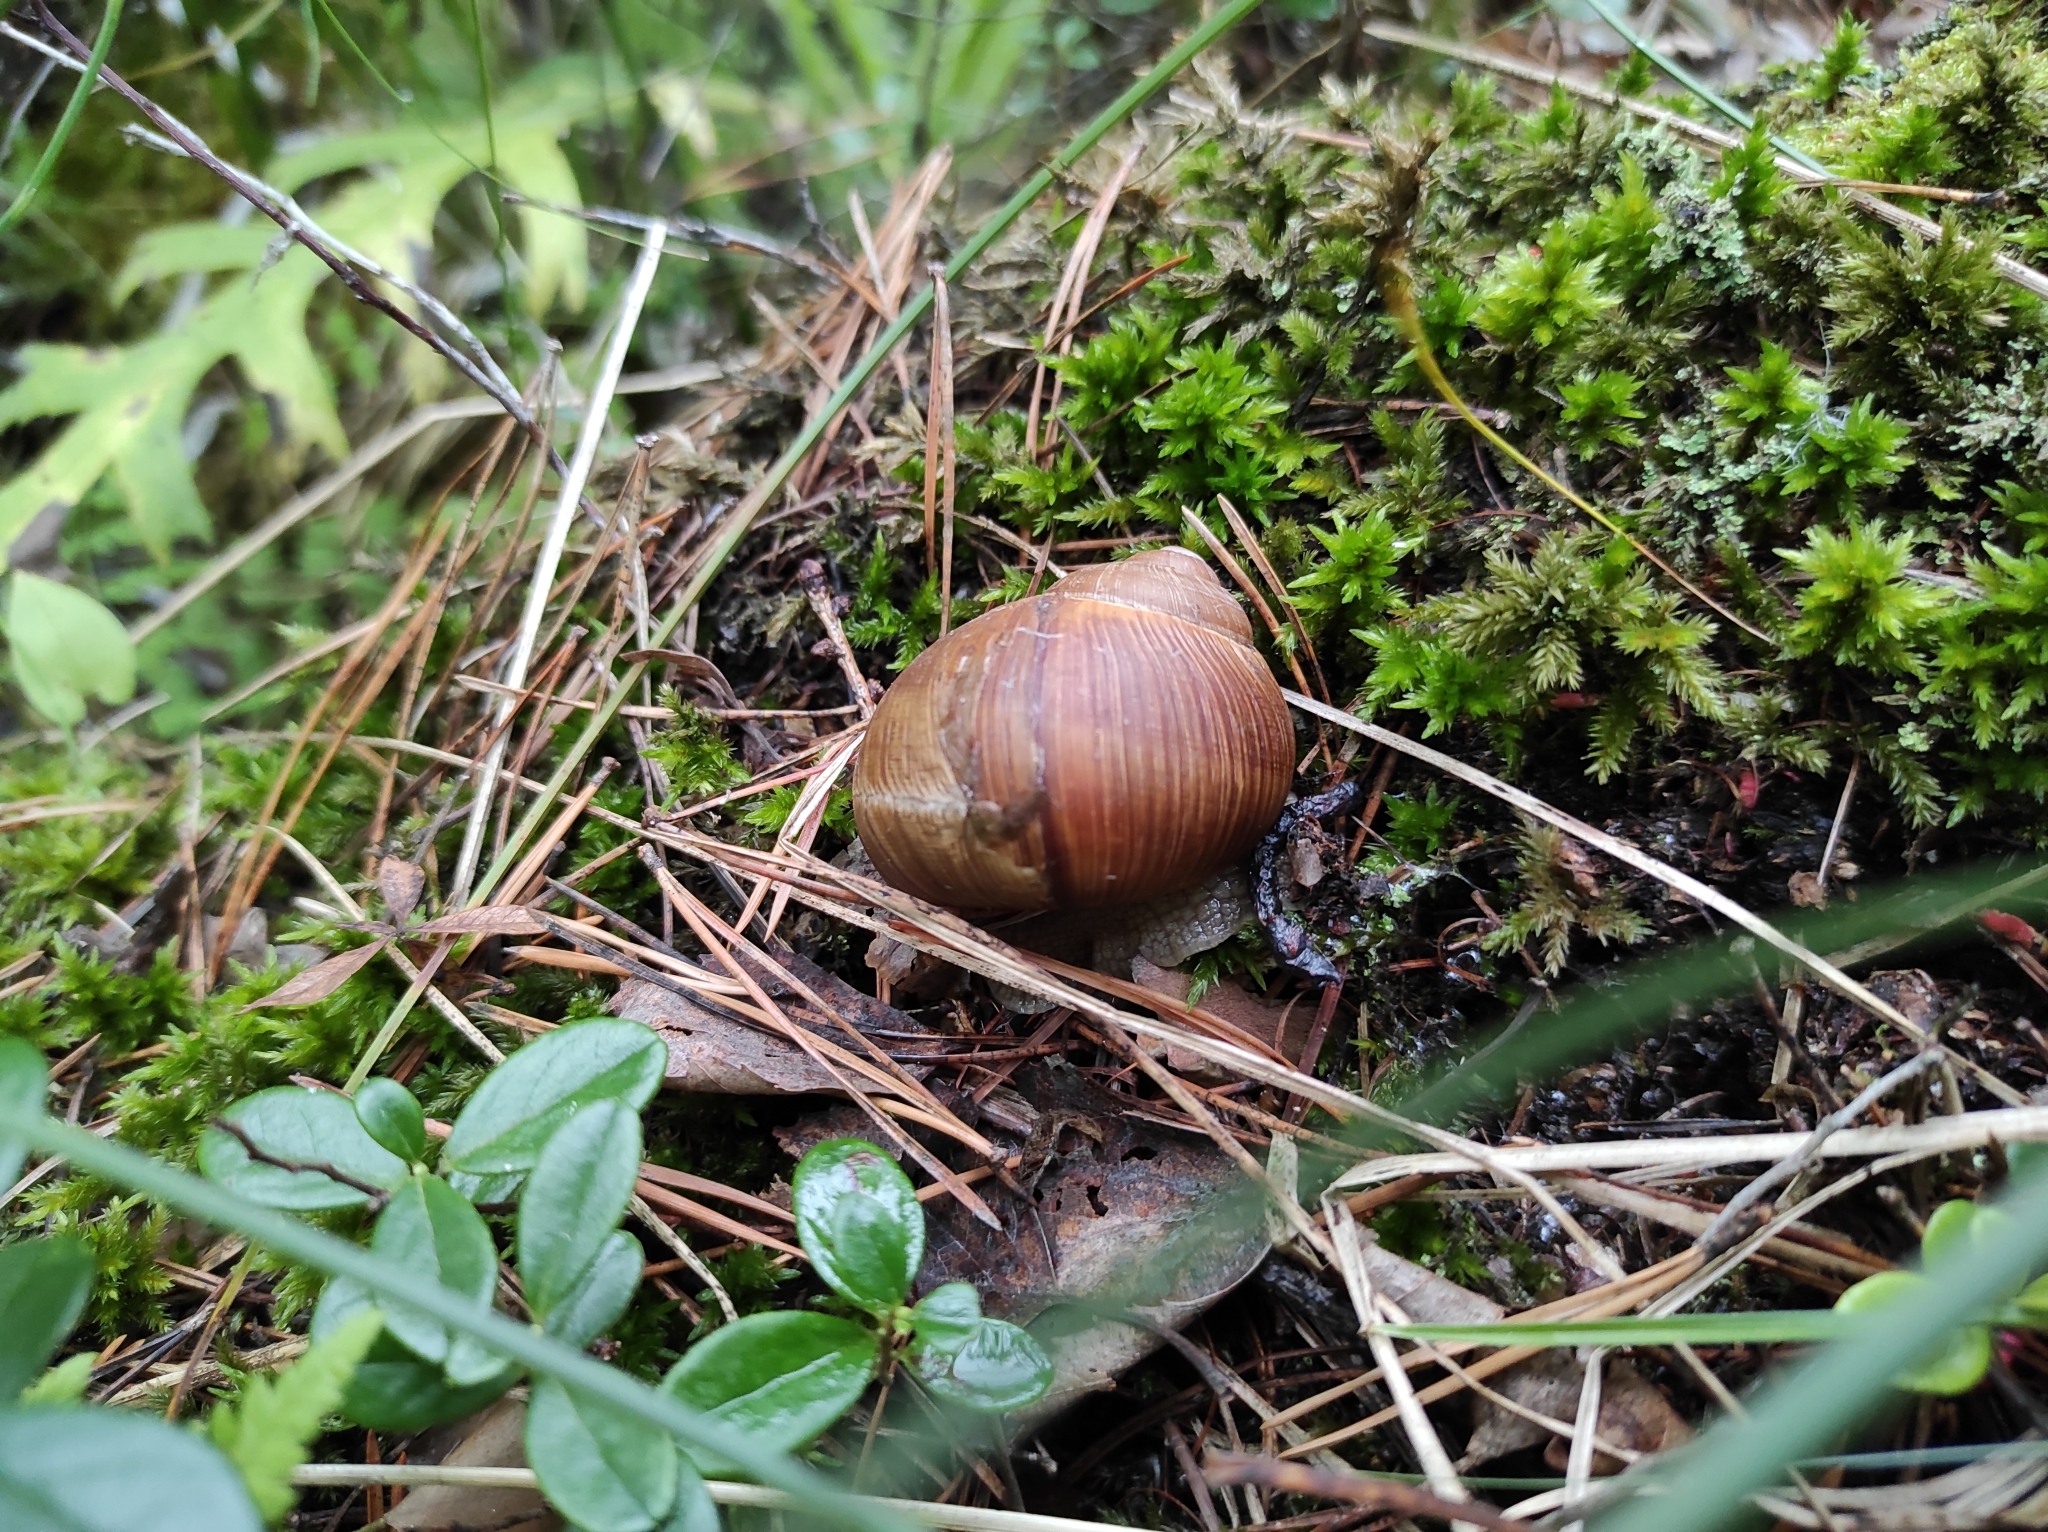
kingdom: Animalia
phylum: Mollusca
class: Gastropoda
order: Stylommatophora
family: Helicidae
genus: Helix
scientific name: Helix pomatia
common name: Roman snail
